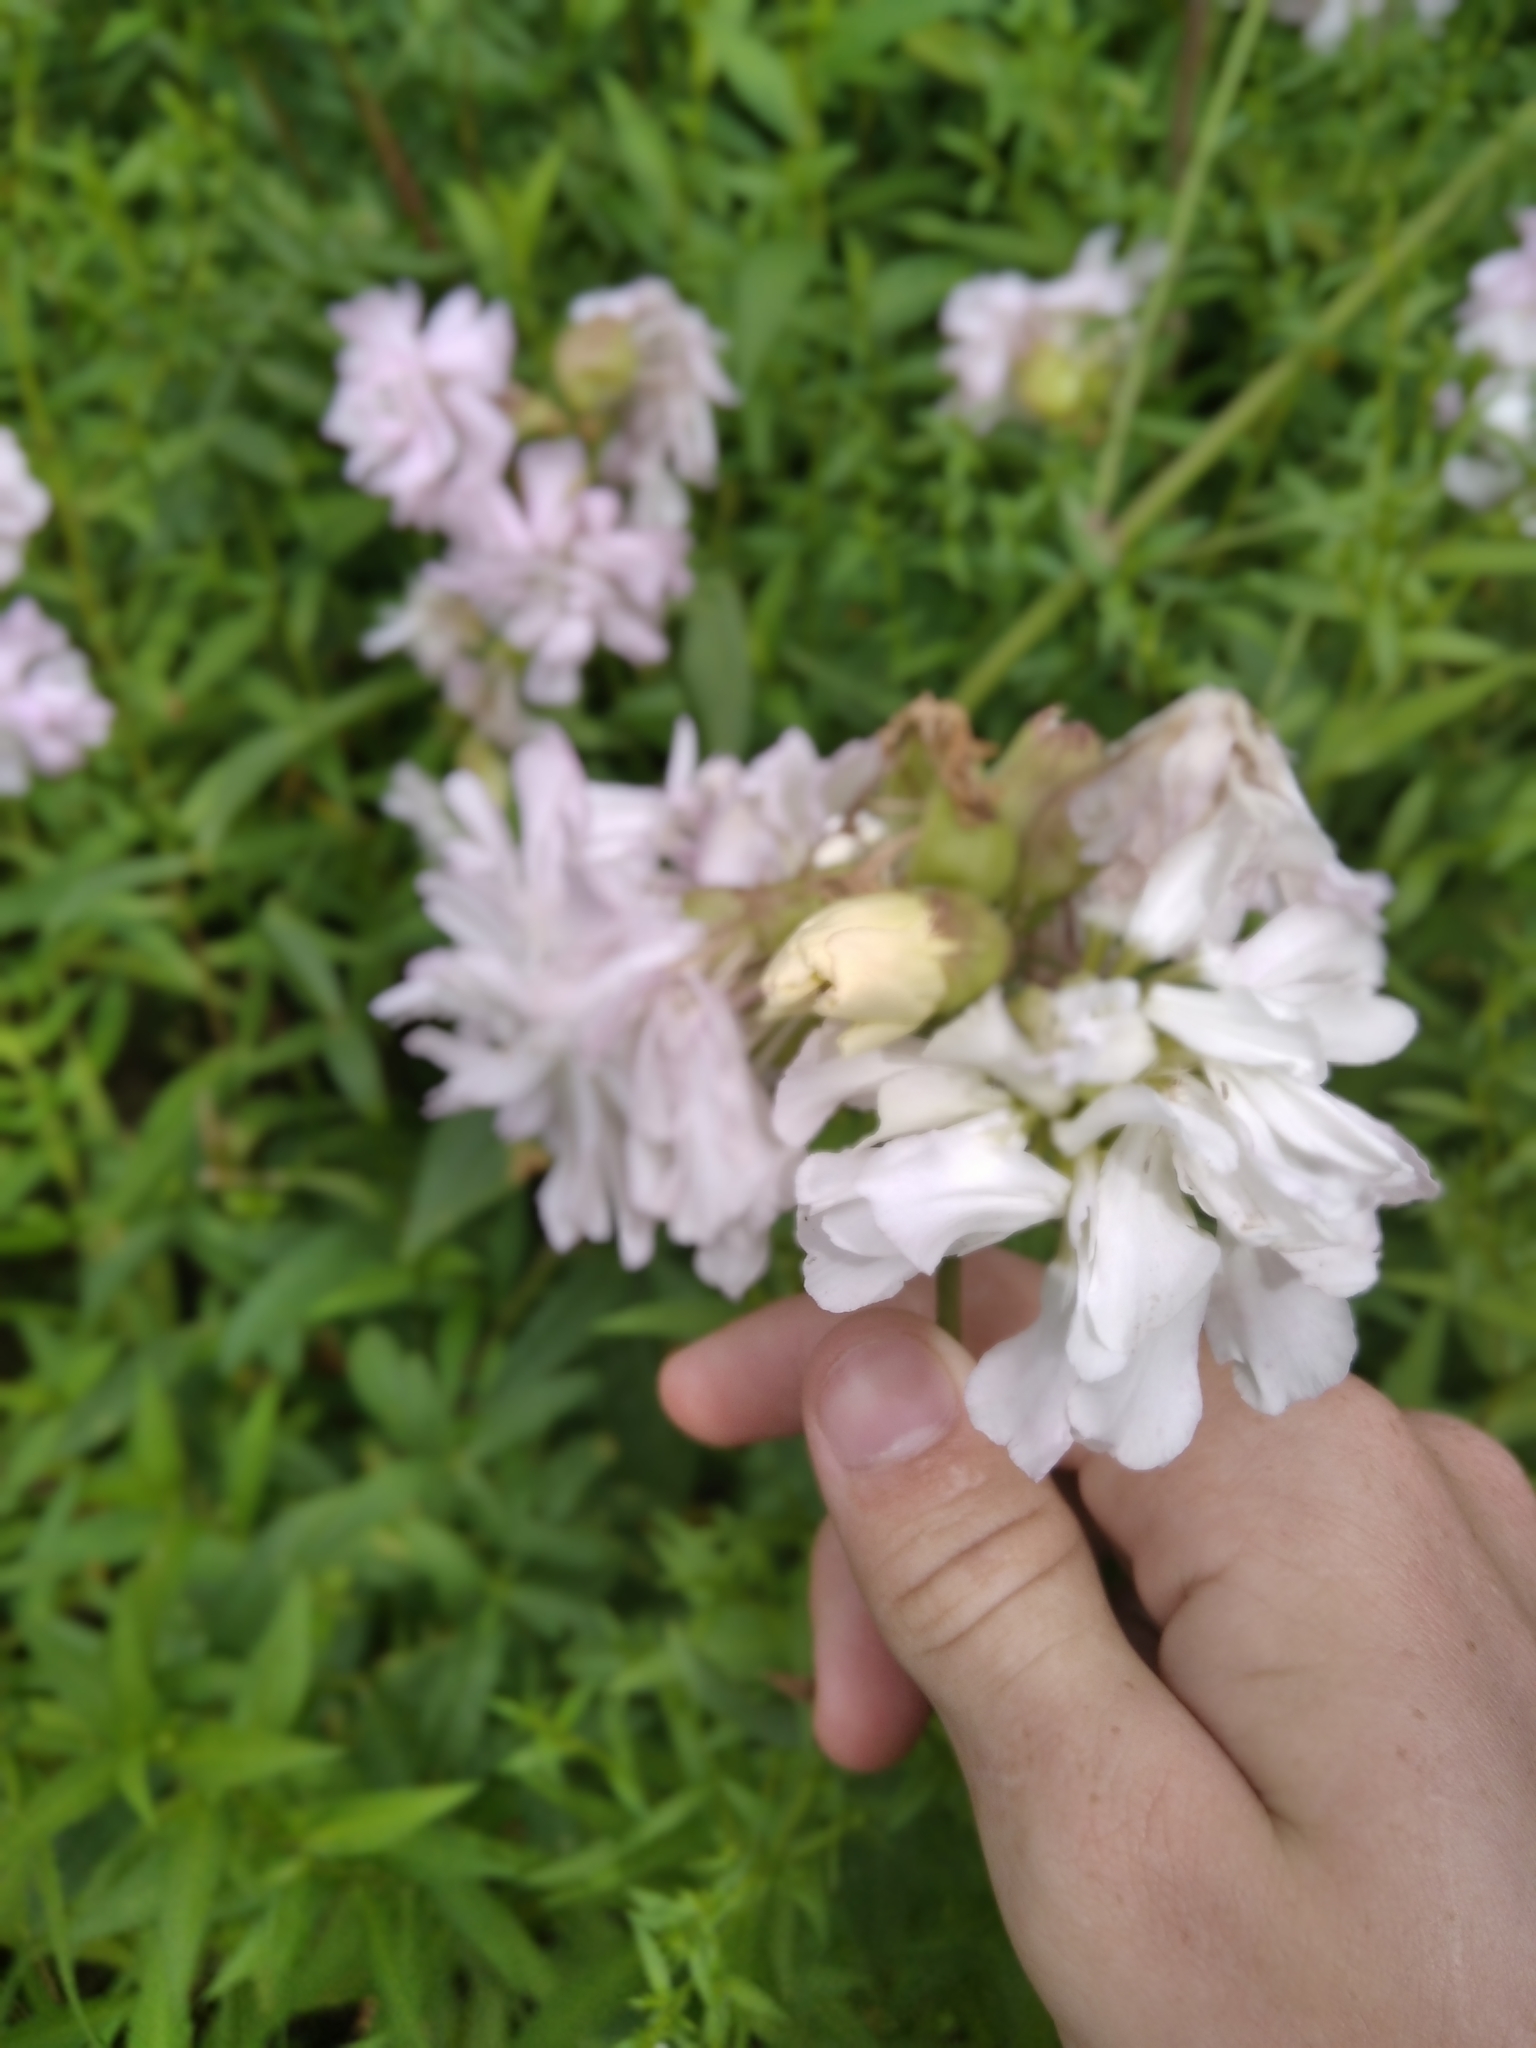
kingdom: Plantae
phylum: Tracheophyta
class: Magnoliopsida
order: Caryophyllales
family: Caryophyllaceae
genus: Saponaria
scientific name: Saponaria officinalis
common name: Soapwort
